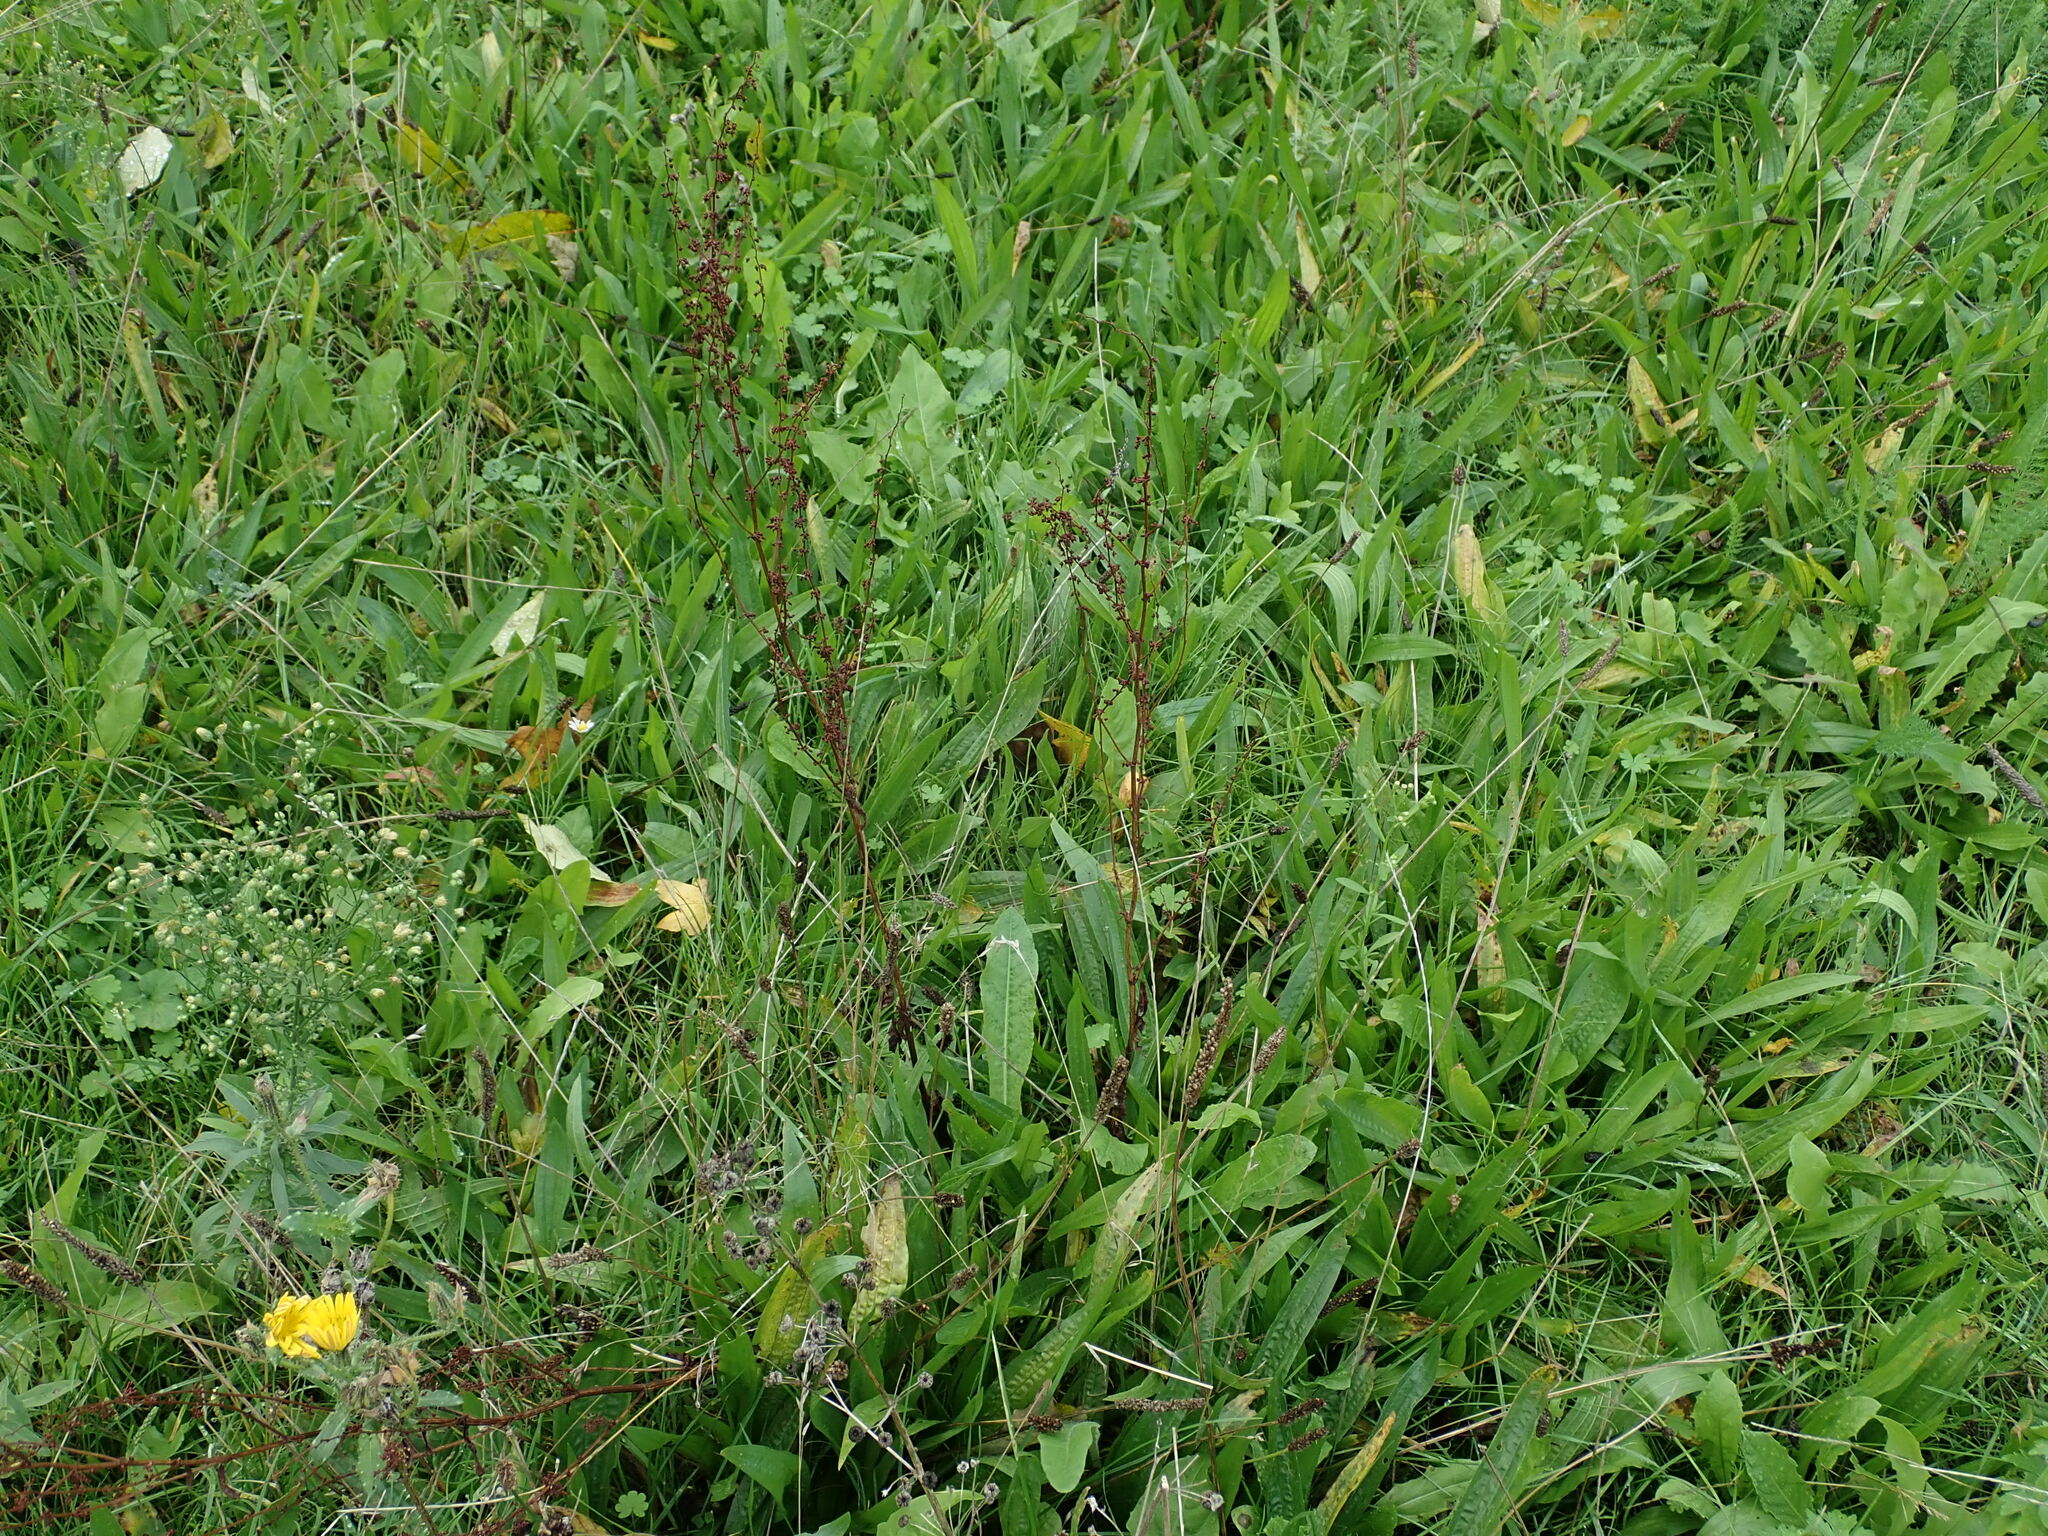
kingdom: Plantae
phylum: Tracheophyta
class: Magnoliopsida
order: Caryophyllales
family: Polygonaceae
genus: Rumex
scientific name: Rumex sanguineus
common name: Wood dock
